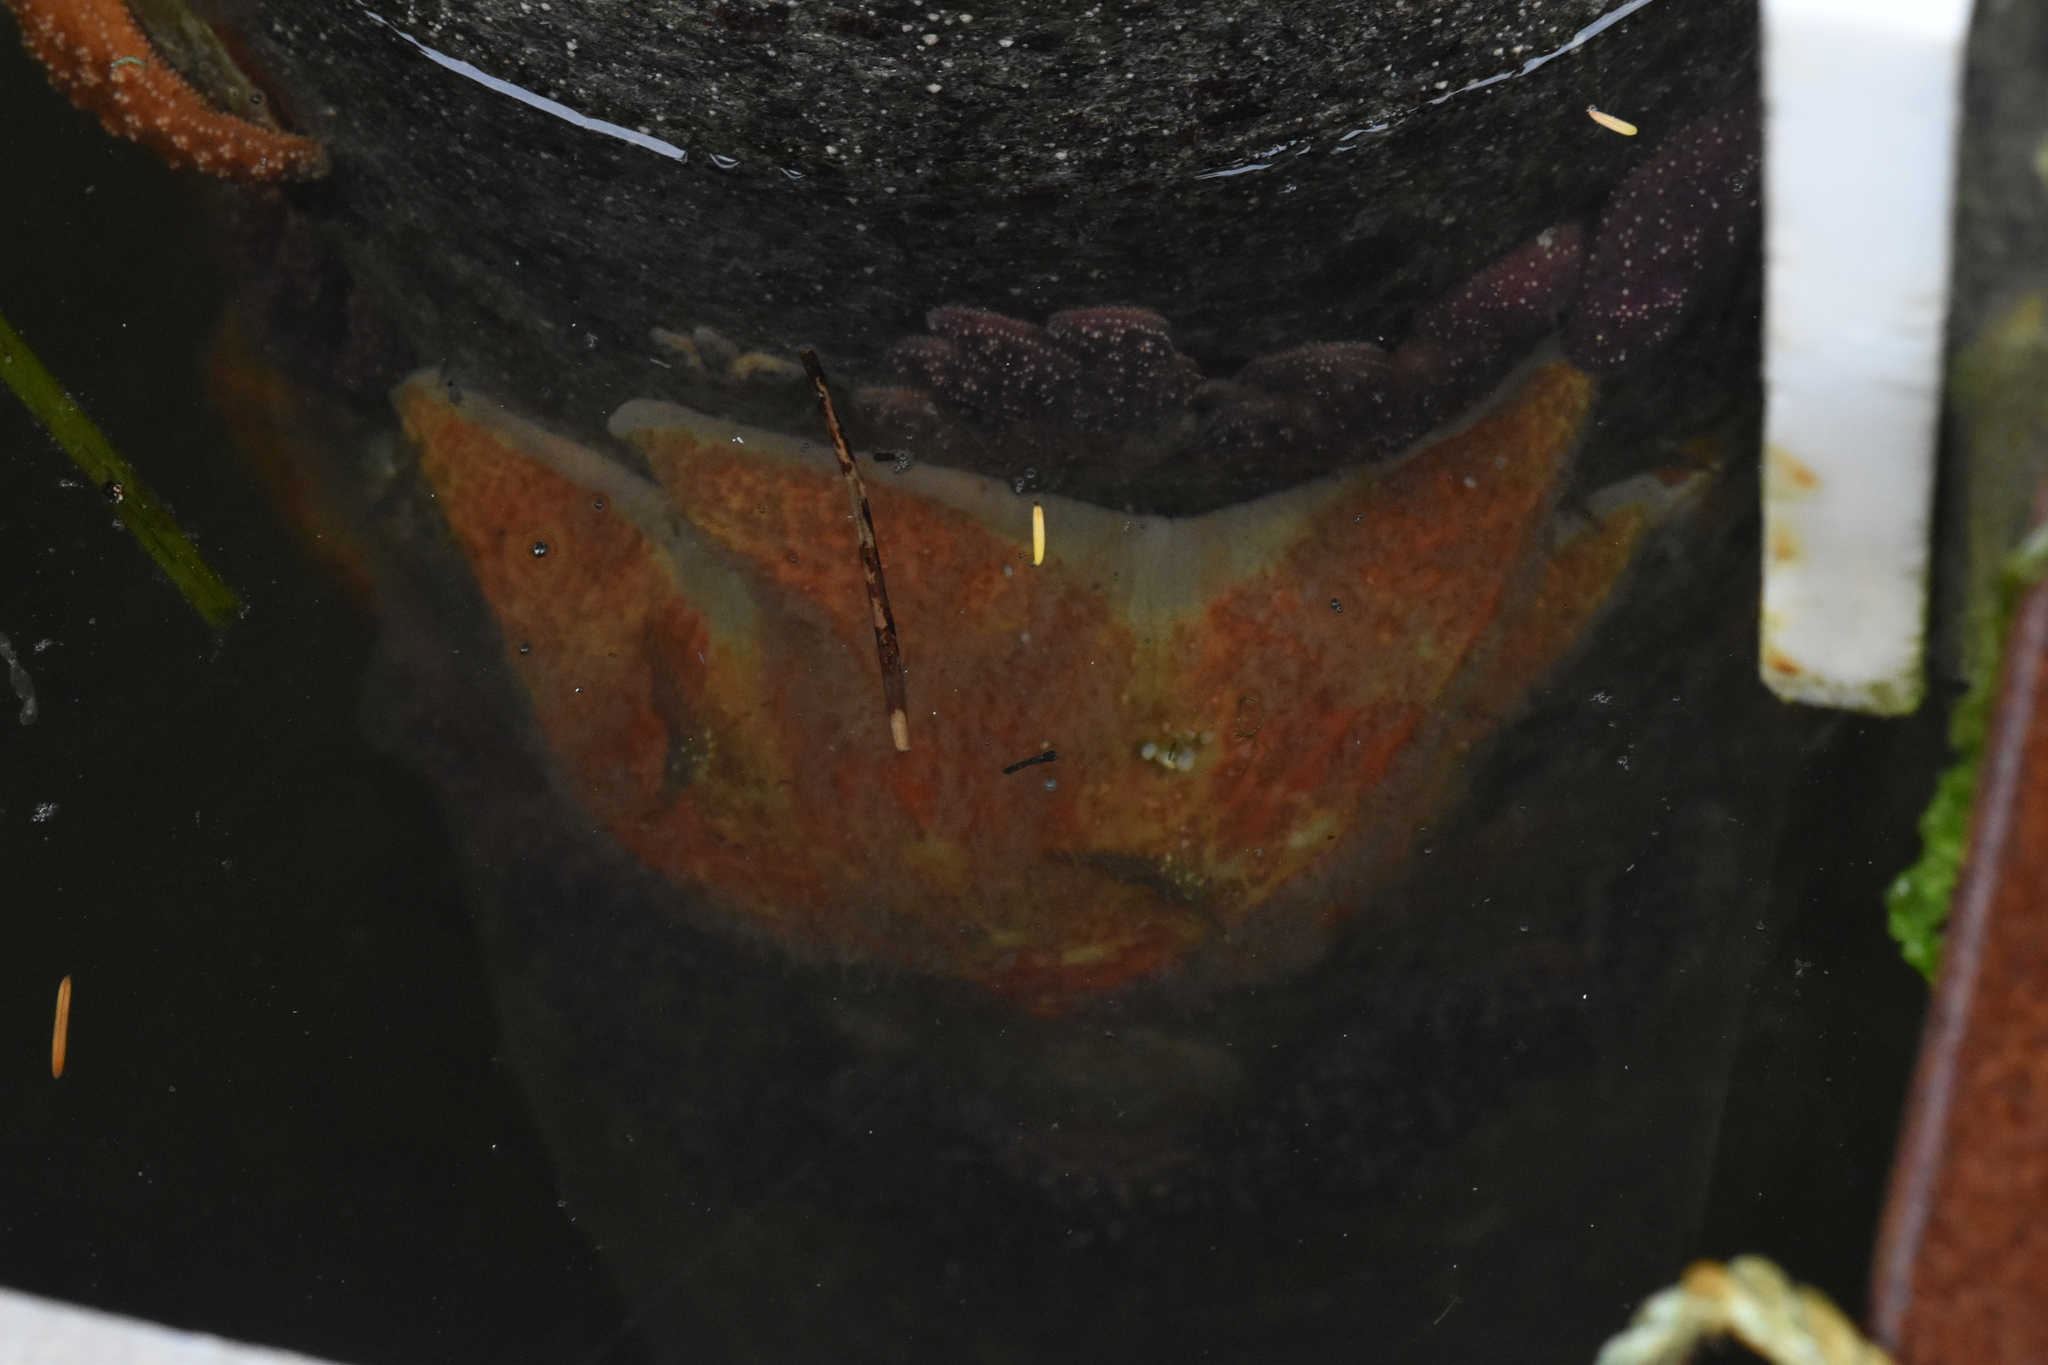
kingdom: Animalia
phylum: Echinodermata
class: Asteroidea
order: Valvatida
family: Asteropseidae
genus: Dermasterias
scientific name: Dermasterias imbricata
